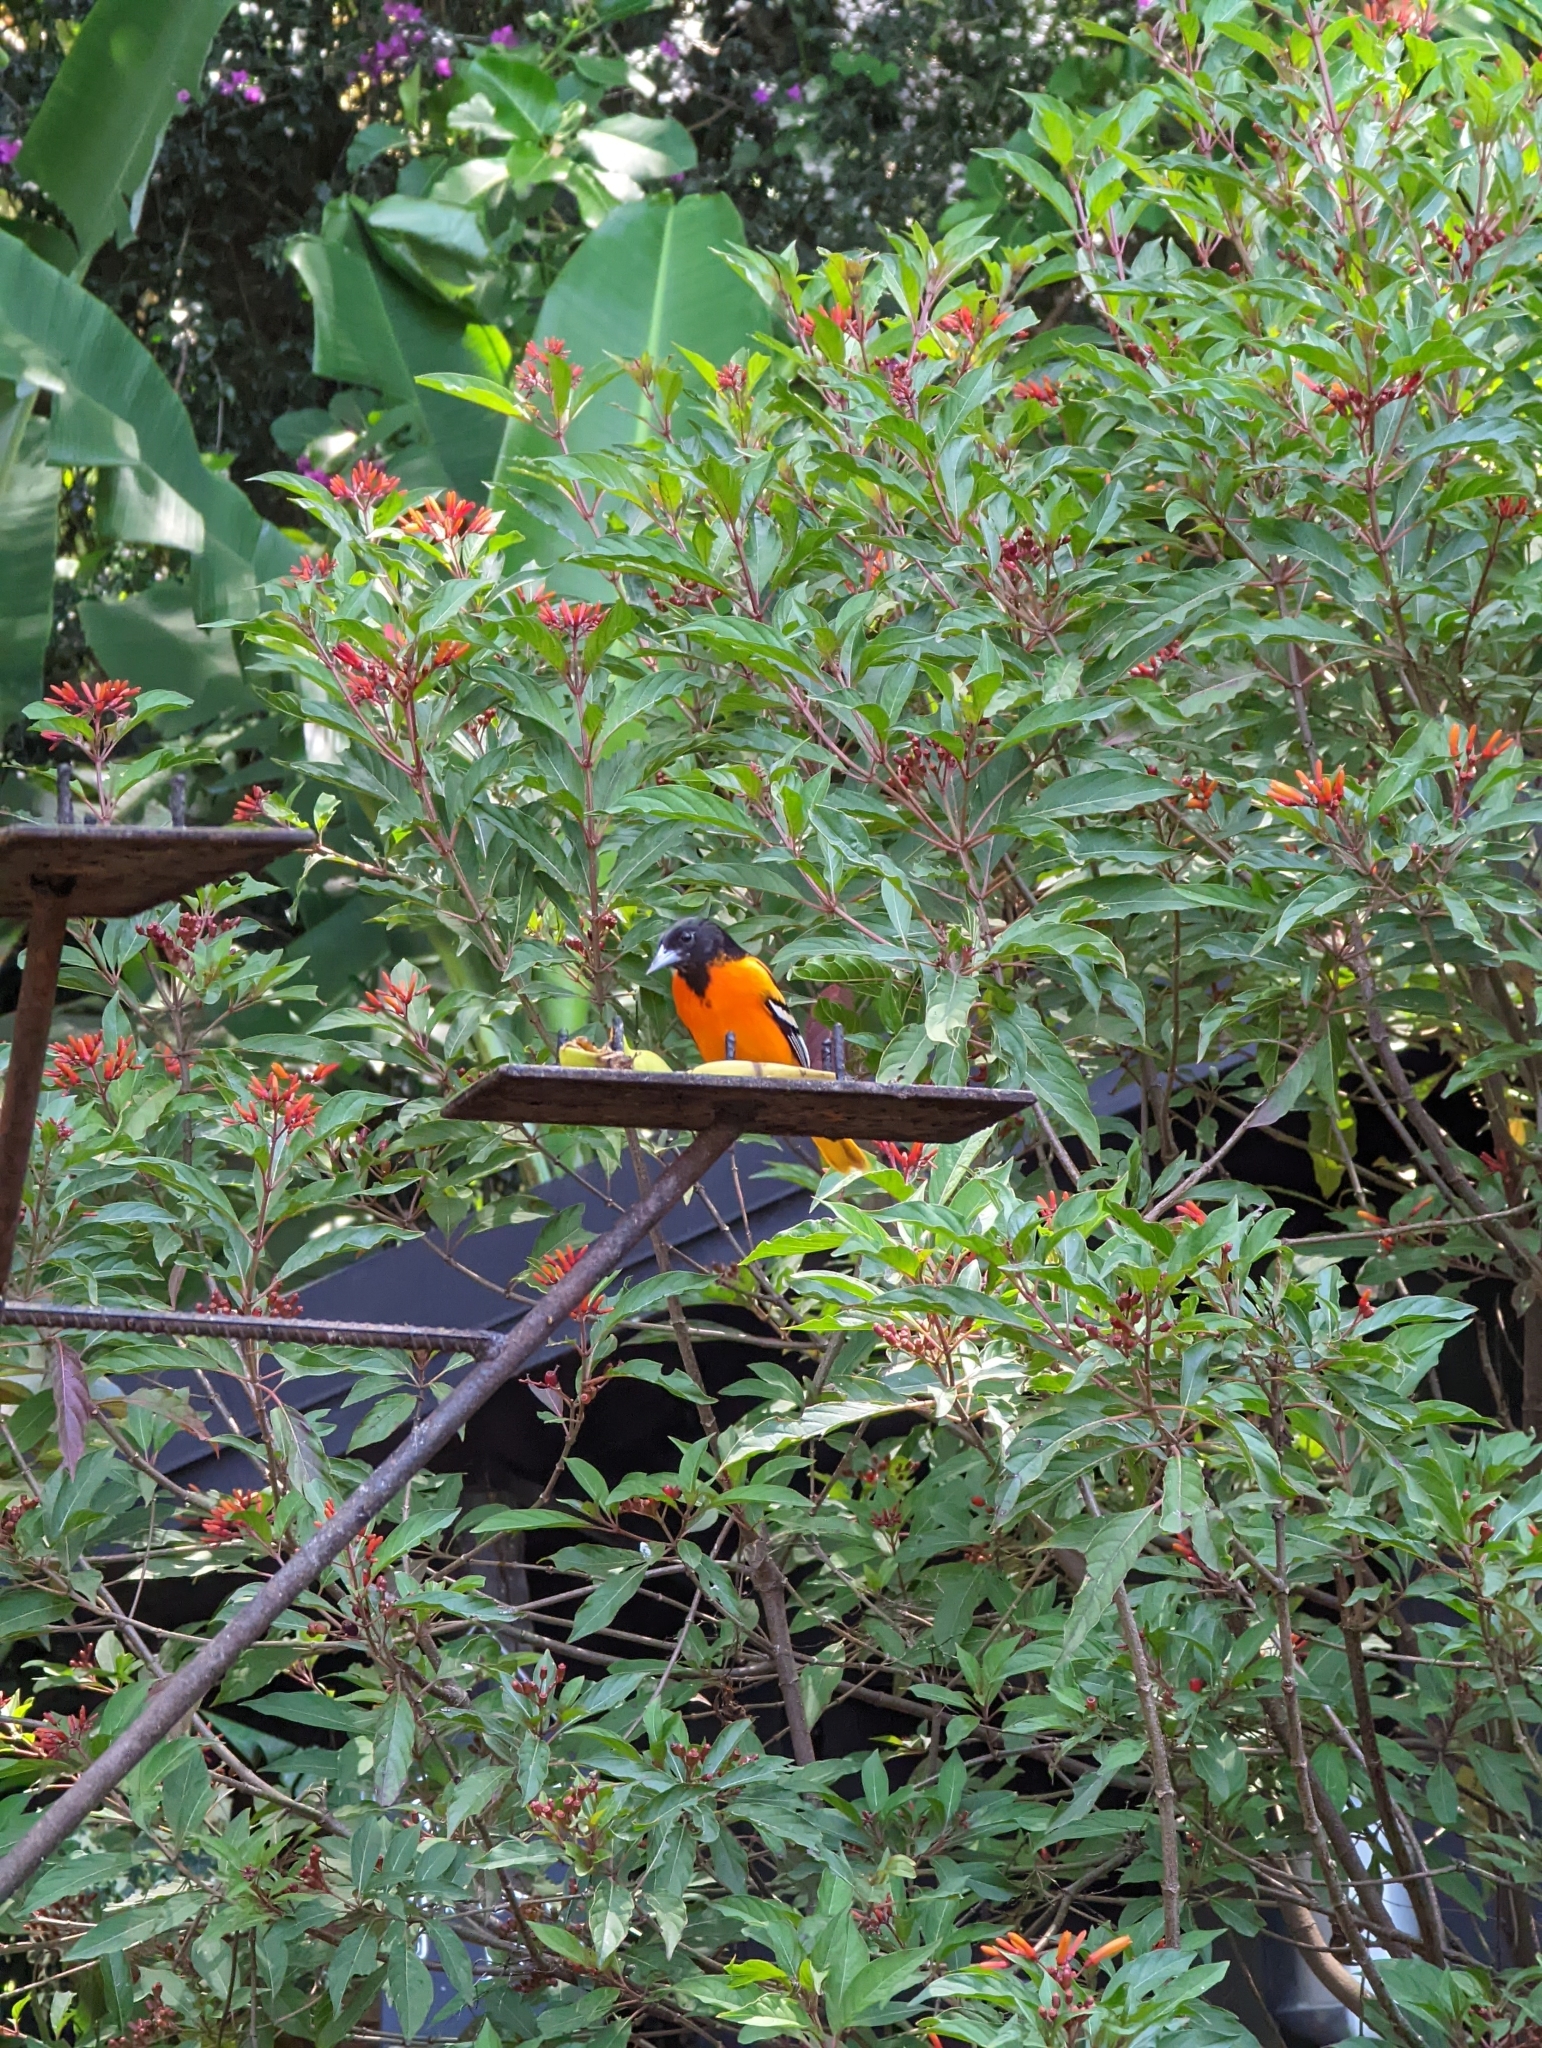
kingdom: Animalia
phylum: Chordata
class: Aves
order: Passeriformes
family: Icteridae
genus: Icterus
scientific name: Icterus galbula
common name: Baltimore oriole
